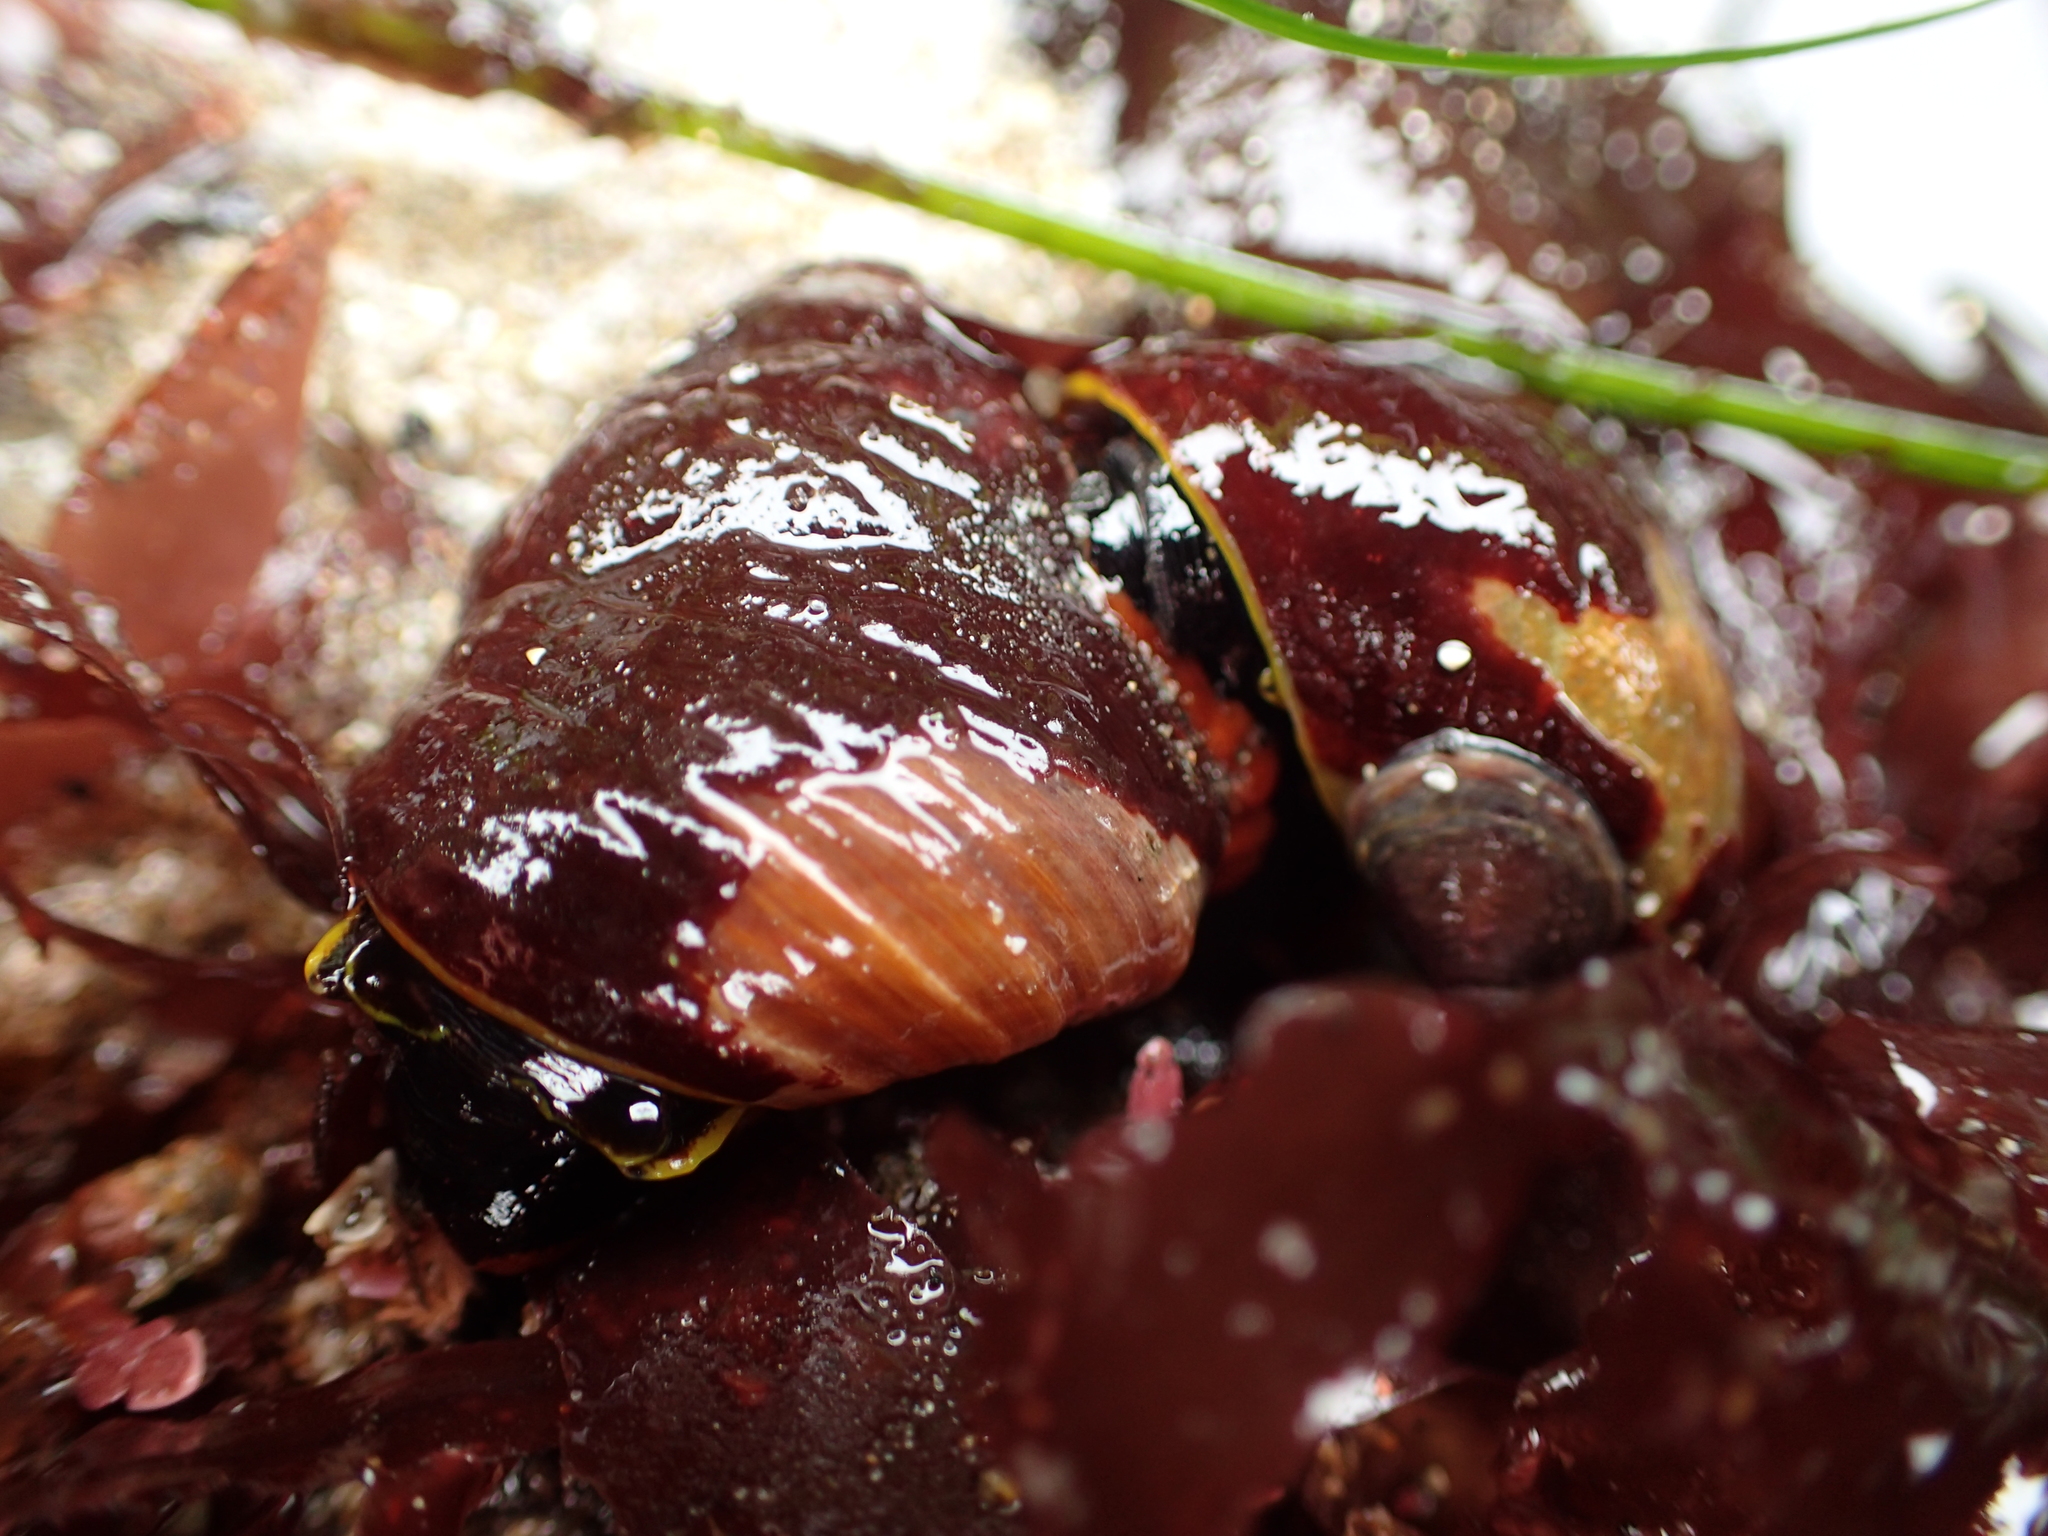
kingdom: Animalia
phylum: Mollusca
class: Gastropoda
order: Trochida
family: Tegulidae
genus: Tegula
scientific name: Tegula brunnea
